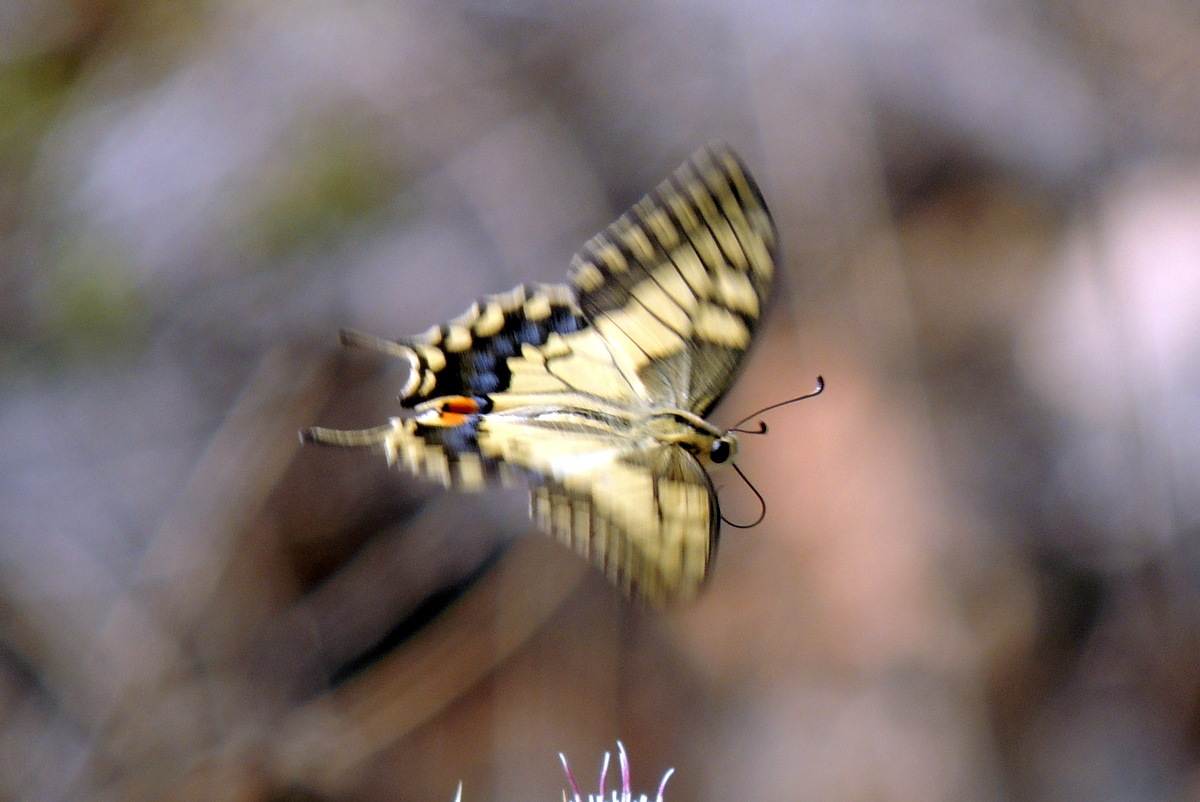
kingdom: Animalia
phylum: Arthropoda
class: Insecta
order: Lepidoptera
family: Papilionidae
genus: Papilio
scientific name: Papilio machaon
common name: Swallowtail
